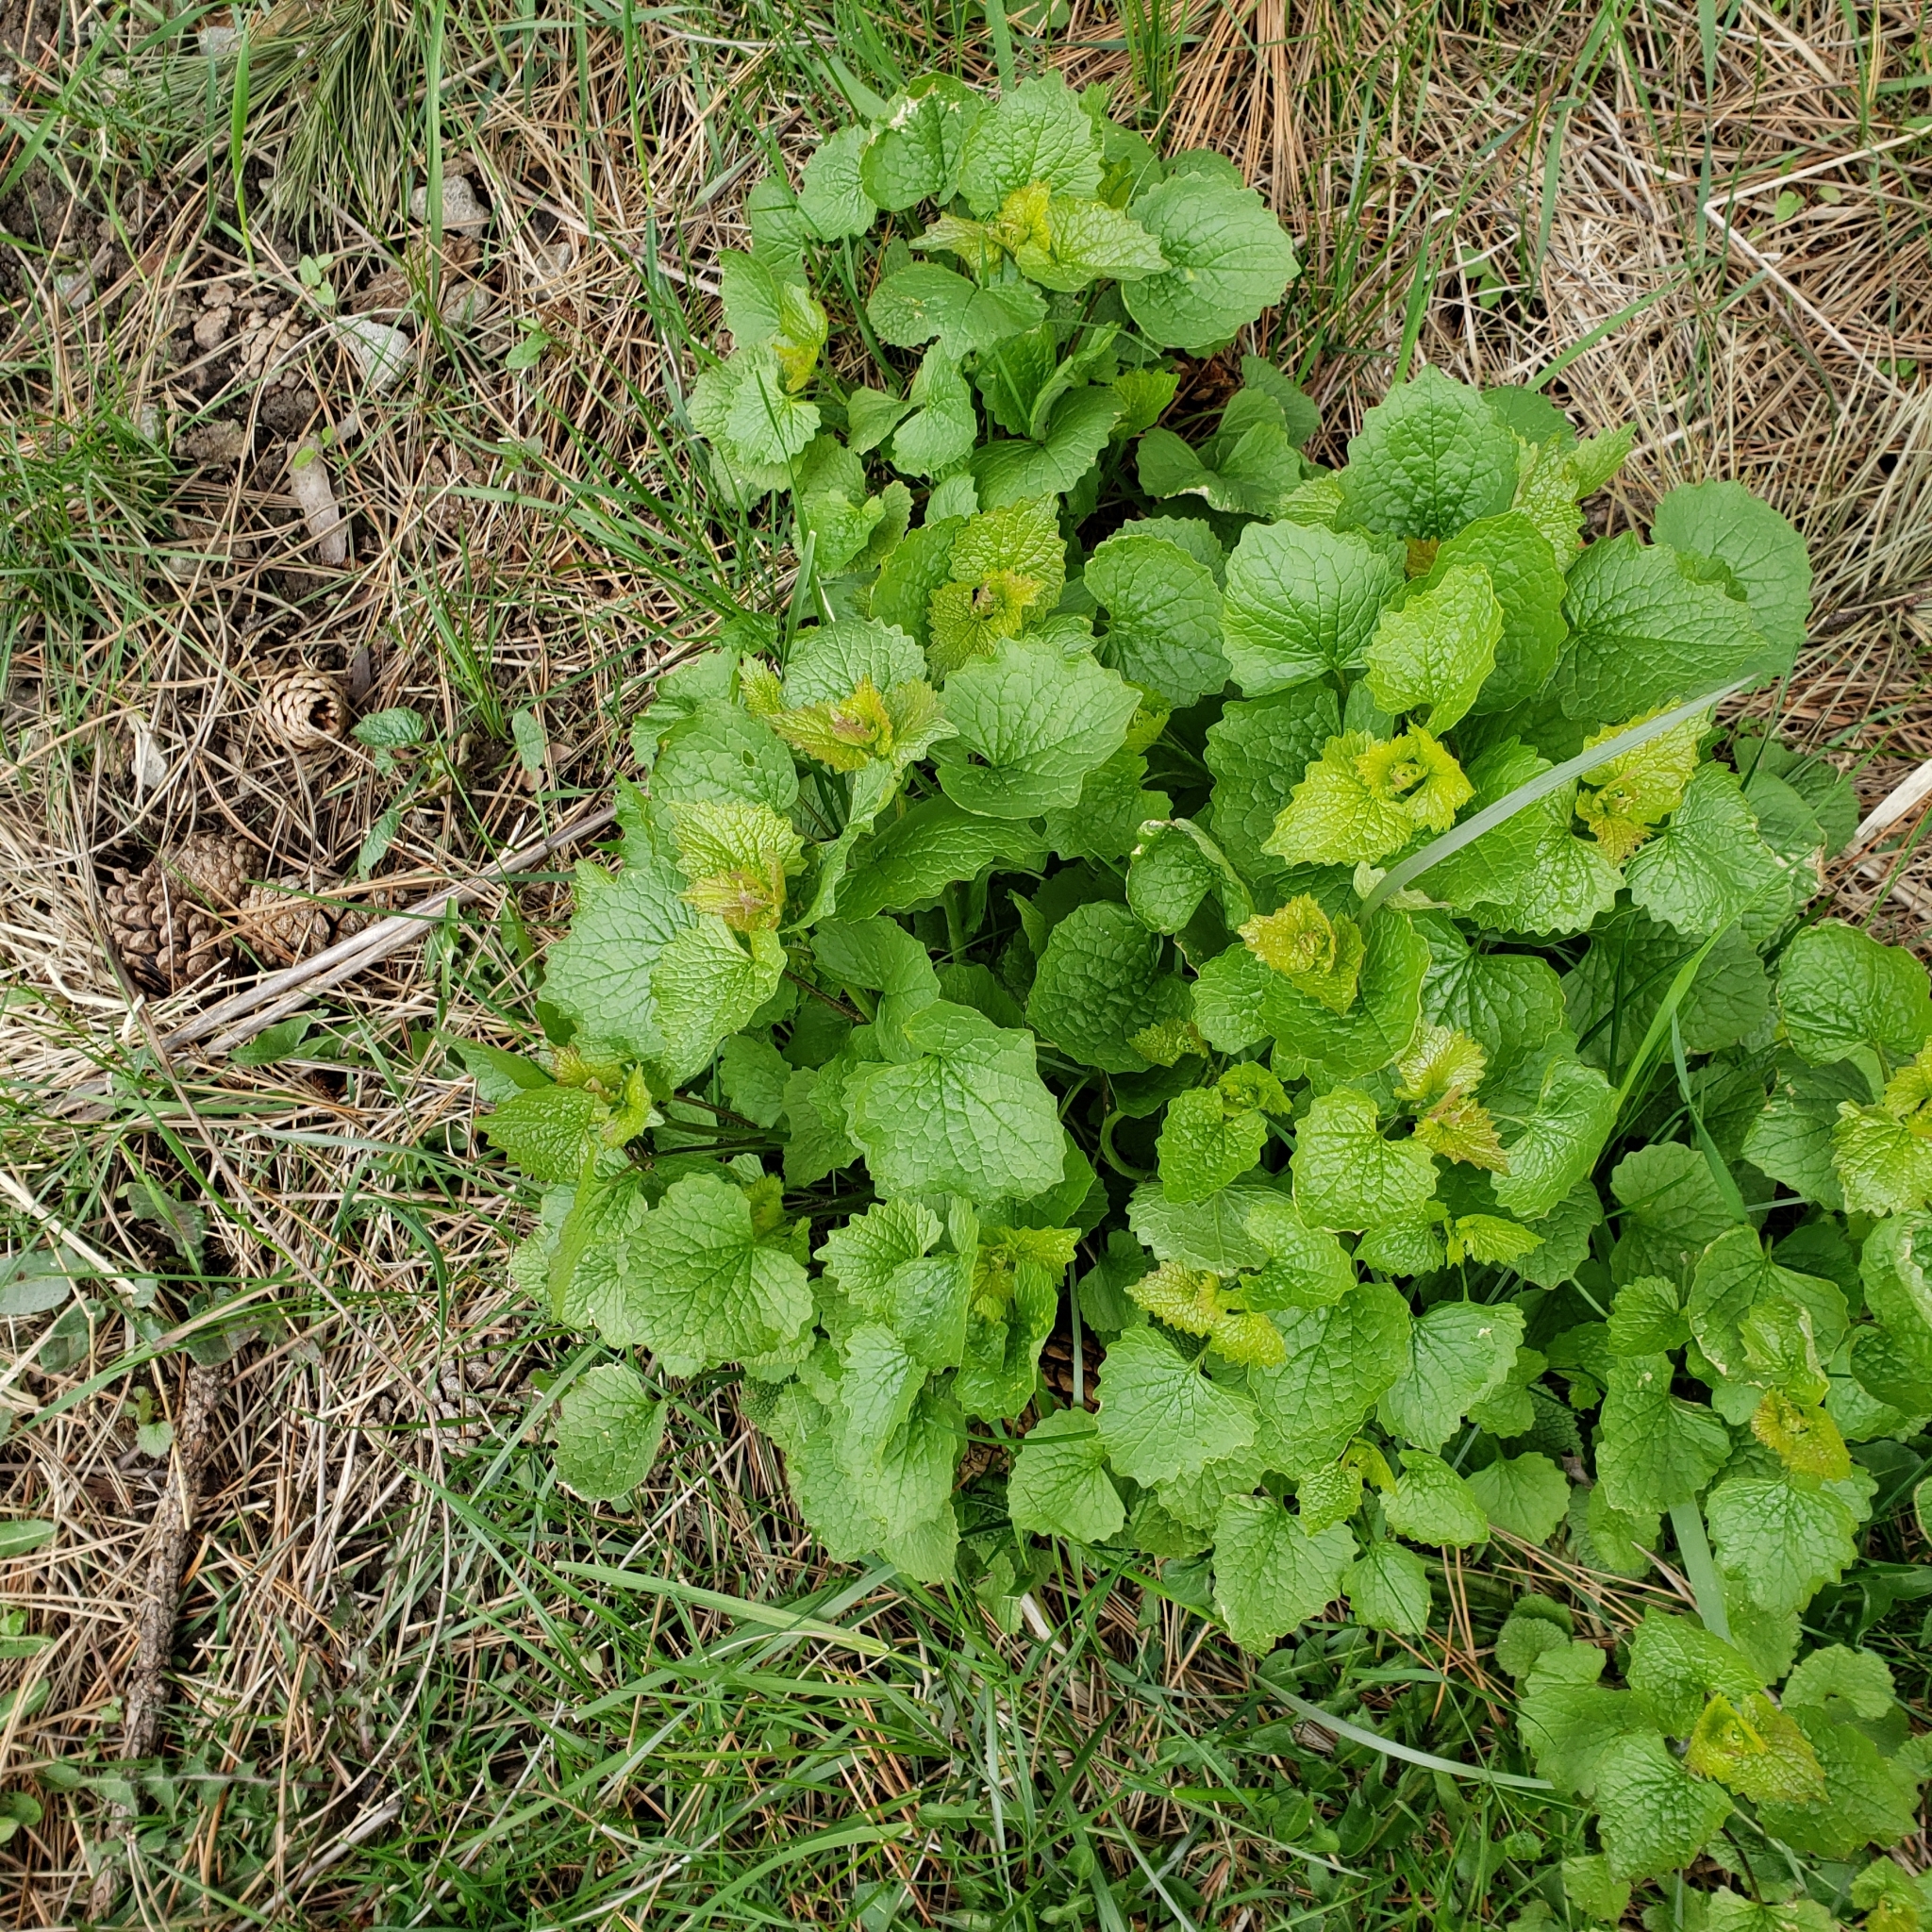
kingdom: Plantae
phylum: Tracheophyta
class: Magnoliopsida
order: Brassicales
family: Brassicaceae
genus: Alliaria
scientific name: Alliaria petiolata
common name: Garlic mustard
